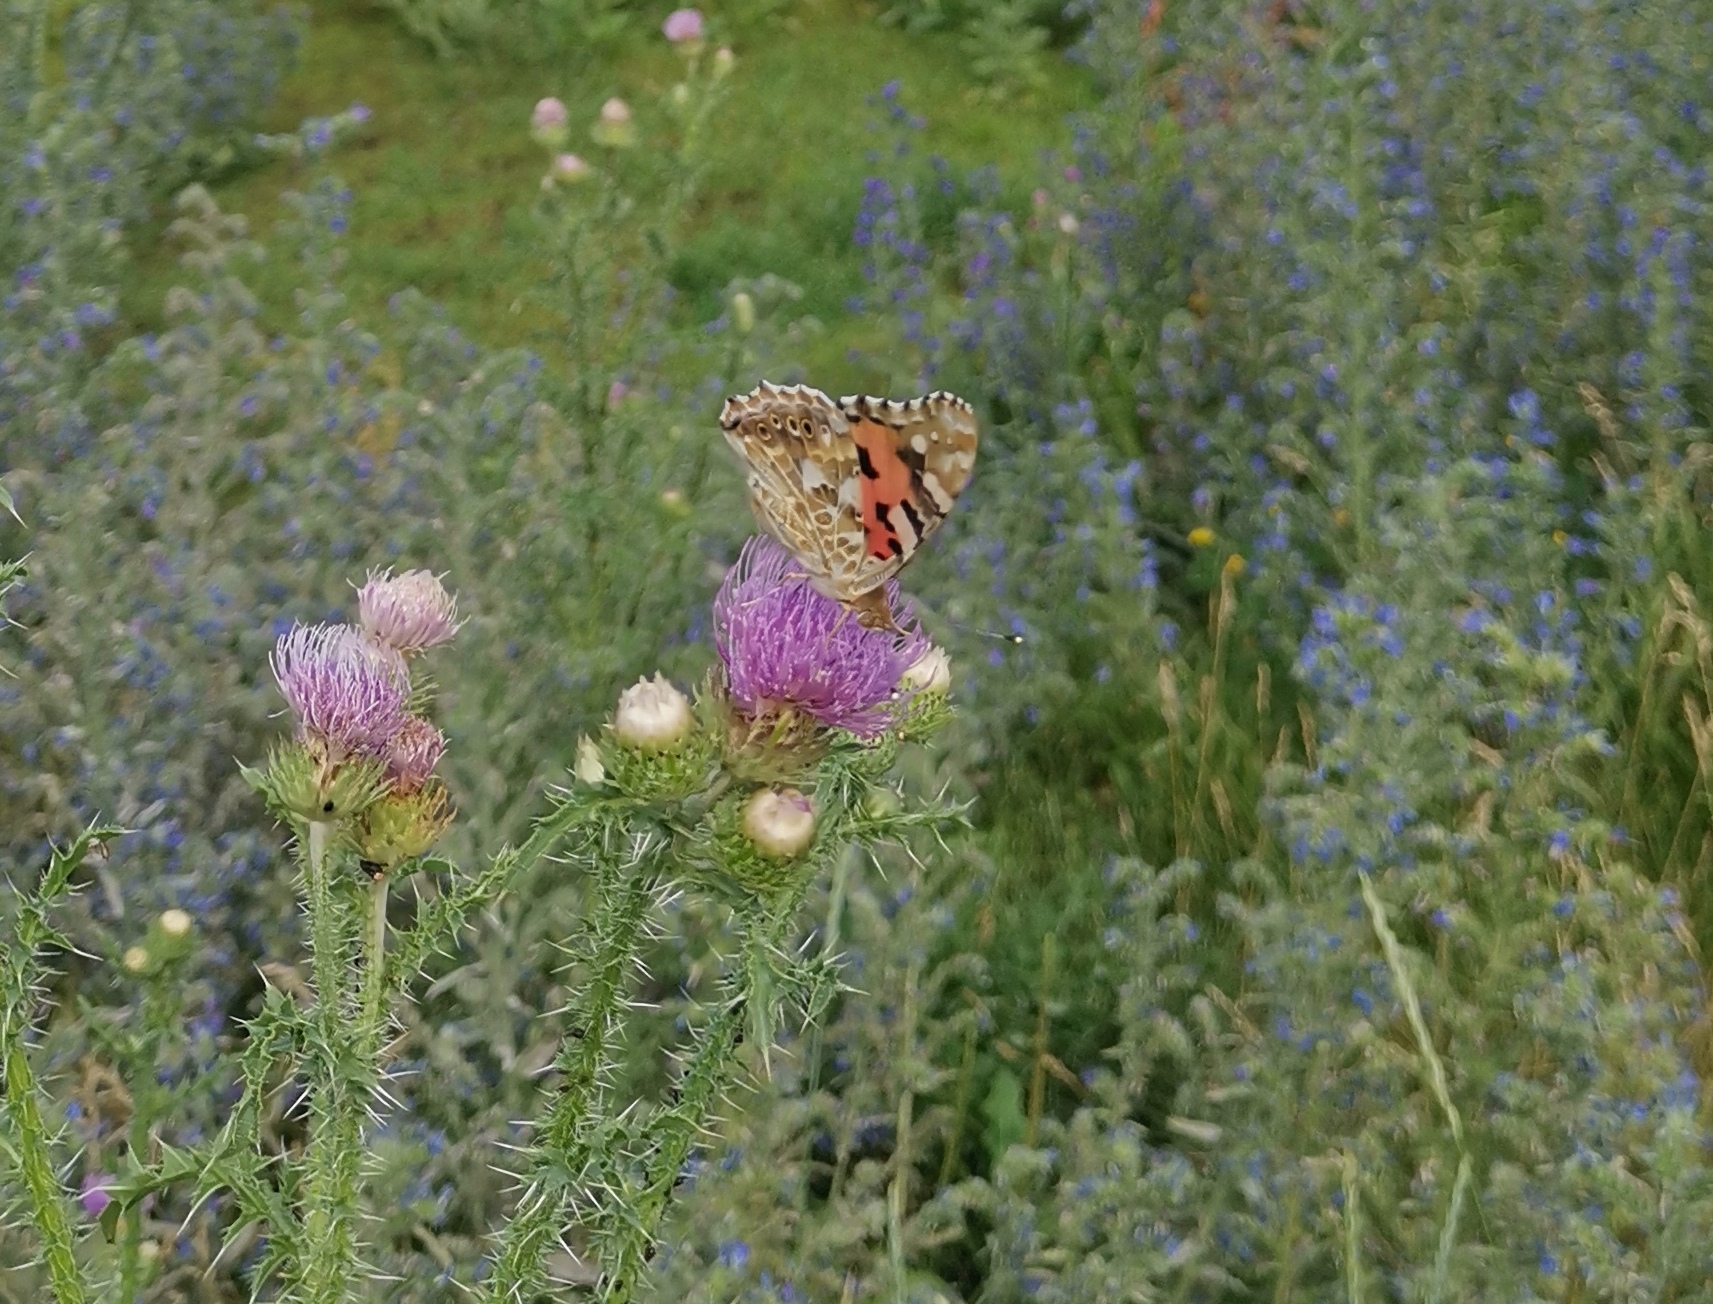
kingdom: Animalia
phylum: Arthropoda
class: Insecta
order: Lepidoptera
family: Nymphalidae
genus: Vanessa
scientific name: Vanessa cardui
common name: Painted lady
